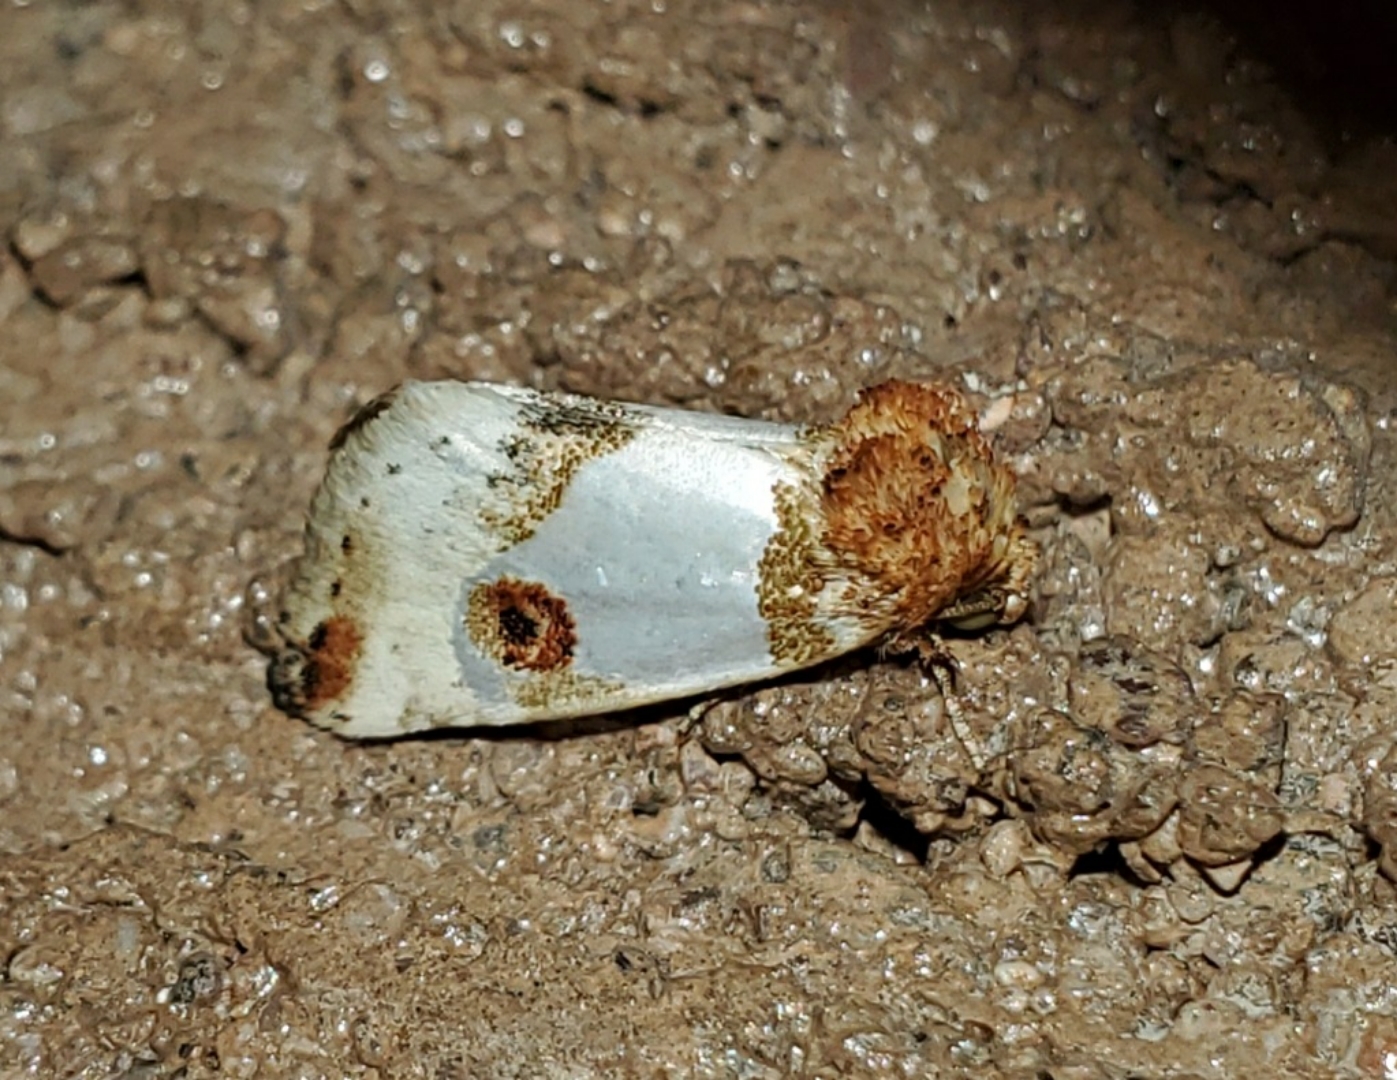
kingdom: Animalia
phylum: Arthropoda
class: Insecta
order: Lepidoptera
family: Noctuidae
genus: Schinia
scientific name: Schinia oculata
